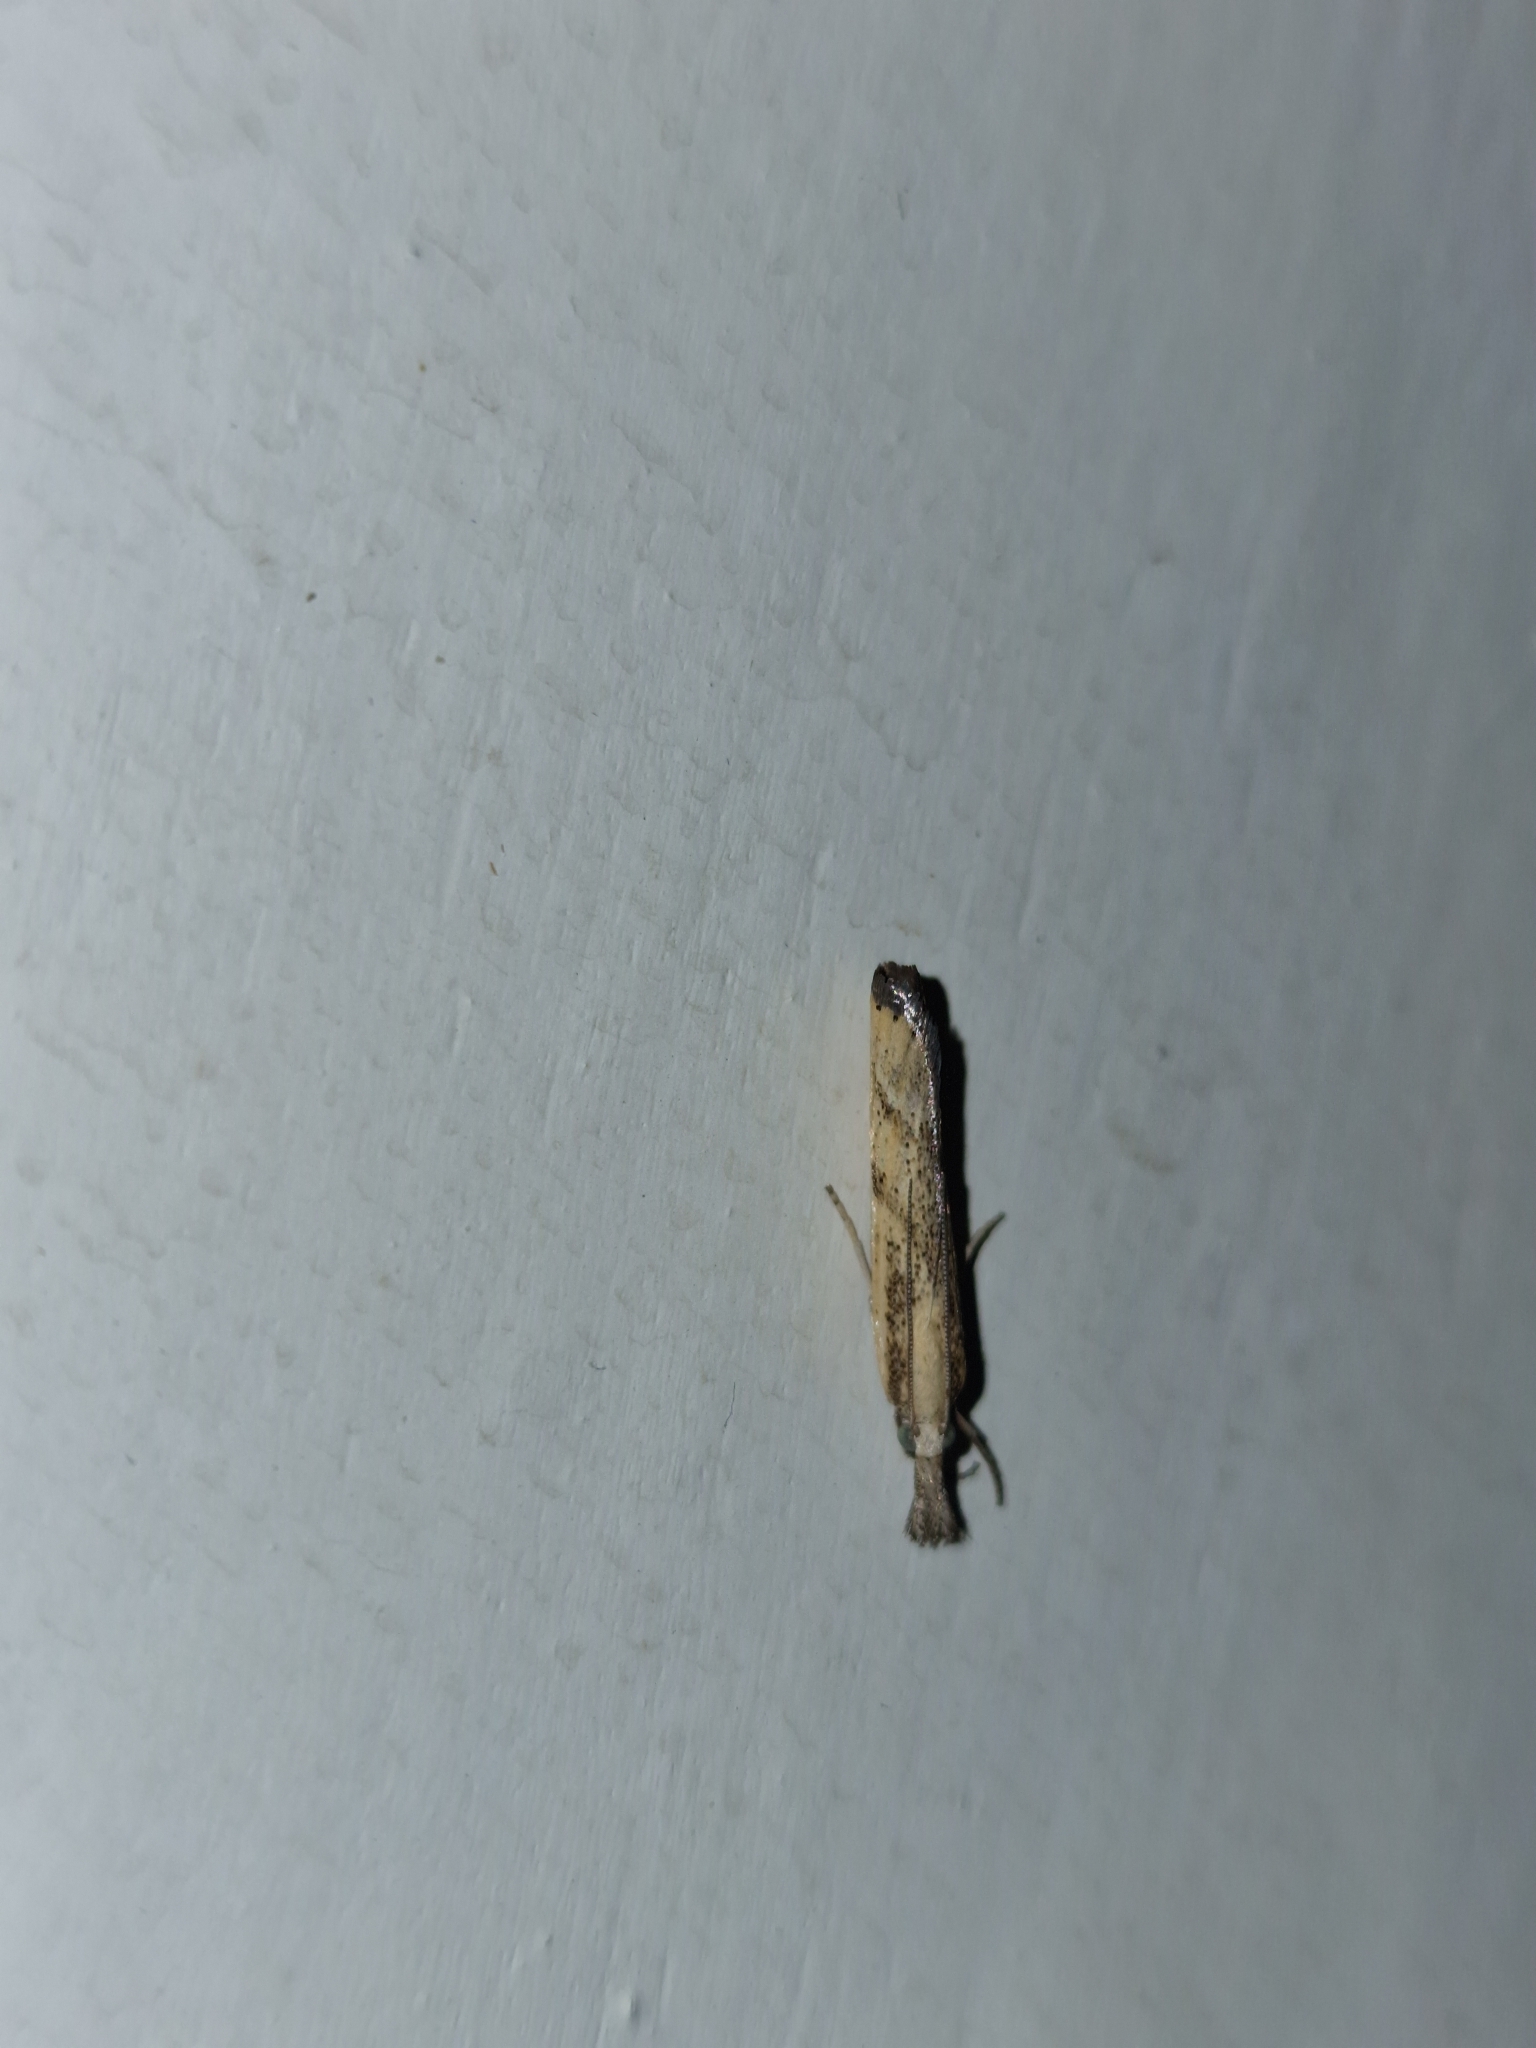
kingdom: Animalia
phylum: Arthropoda
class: Insecta
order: Lepidoptera
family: Crambidae
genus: Agriphila
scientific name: Agriphila inquinatella
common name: Barred grass-veneer
